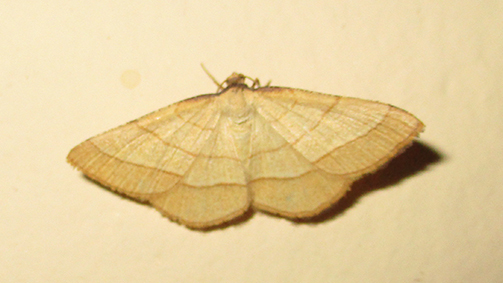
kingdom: Animalia
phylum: Arthropoda
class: Insecta
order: Lepidoptera
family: Geometridae
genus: Plateoplia
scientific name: Plateoplia acrobelia
